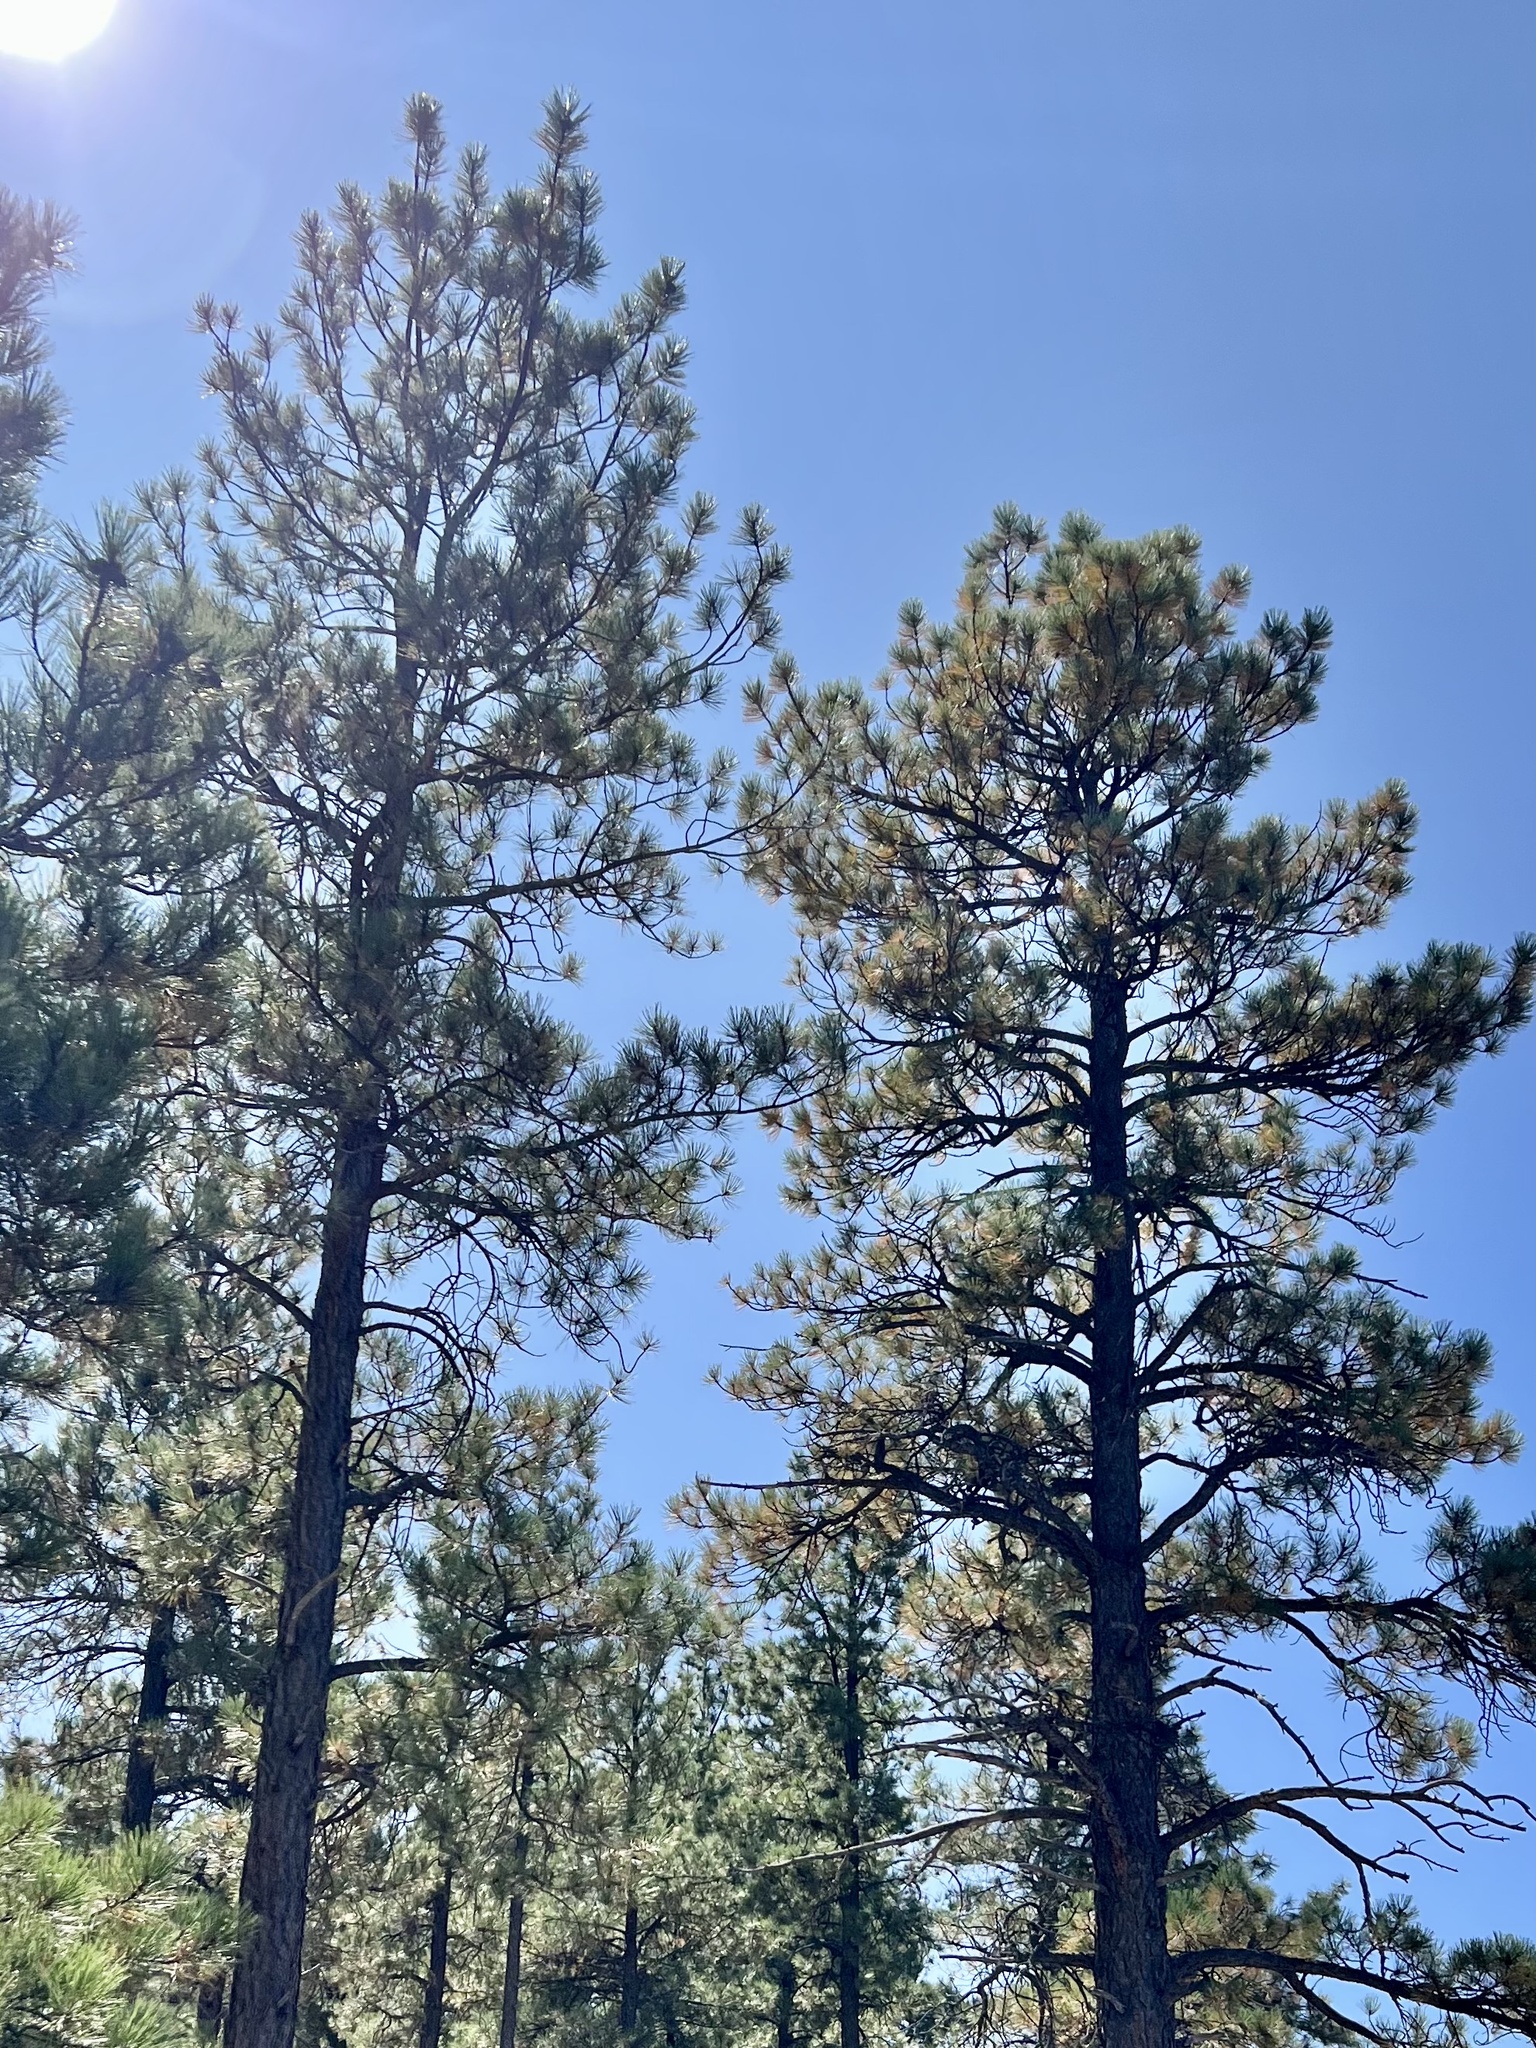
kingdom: Plantae
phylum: Tracheophyta
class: Pinopsida
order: Pinales
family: Pinaceae
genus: Pinus
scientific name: Pinus ponderosa
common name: Western yellow-pine
